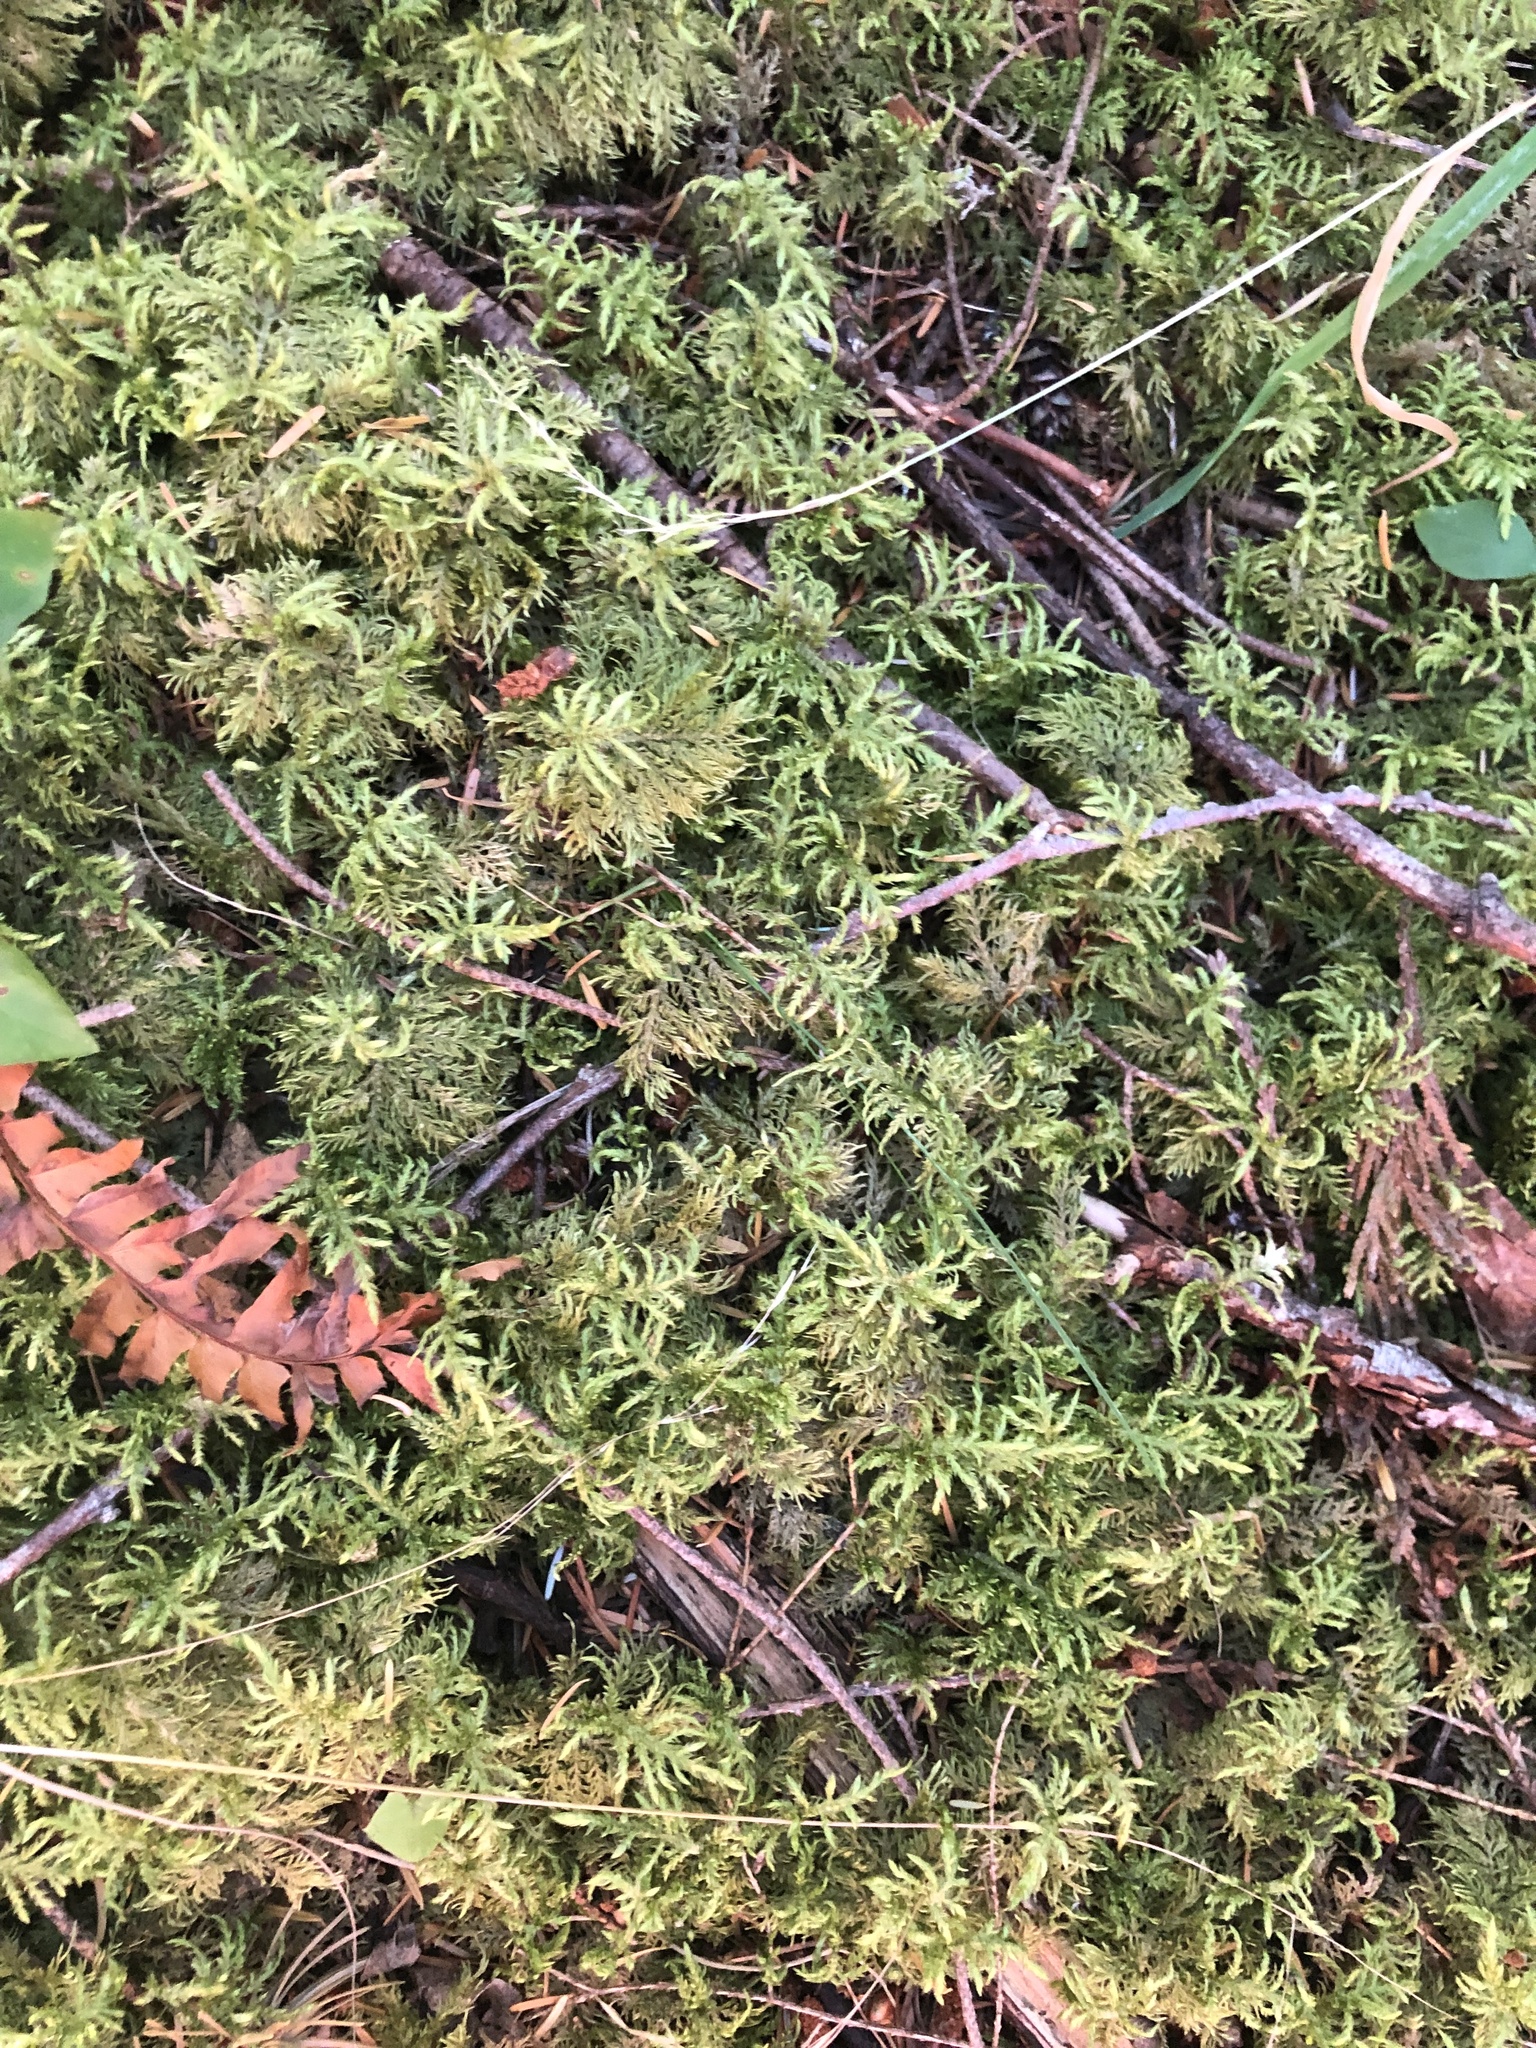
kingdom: Plantae
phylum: Bryophyta
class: Bryopsida
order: Hypnales
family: Hylocomiaceae
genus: Hylocomium
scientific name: Hylocomium splendens
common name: Stairstep moss
